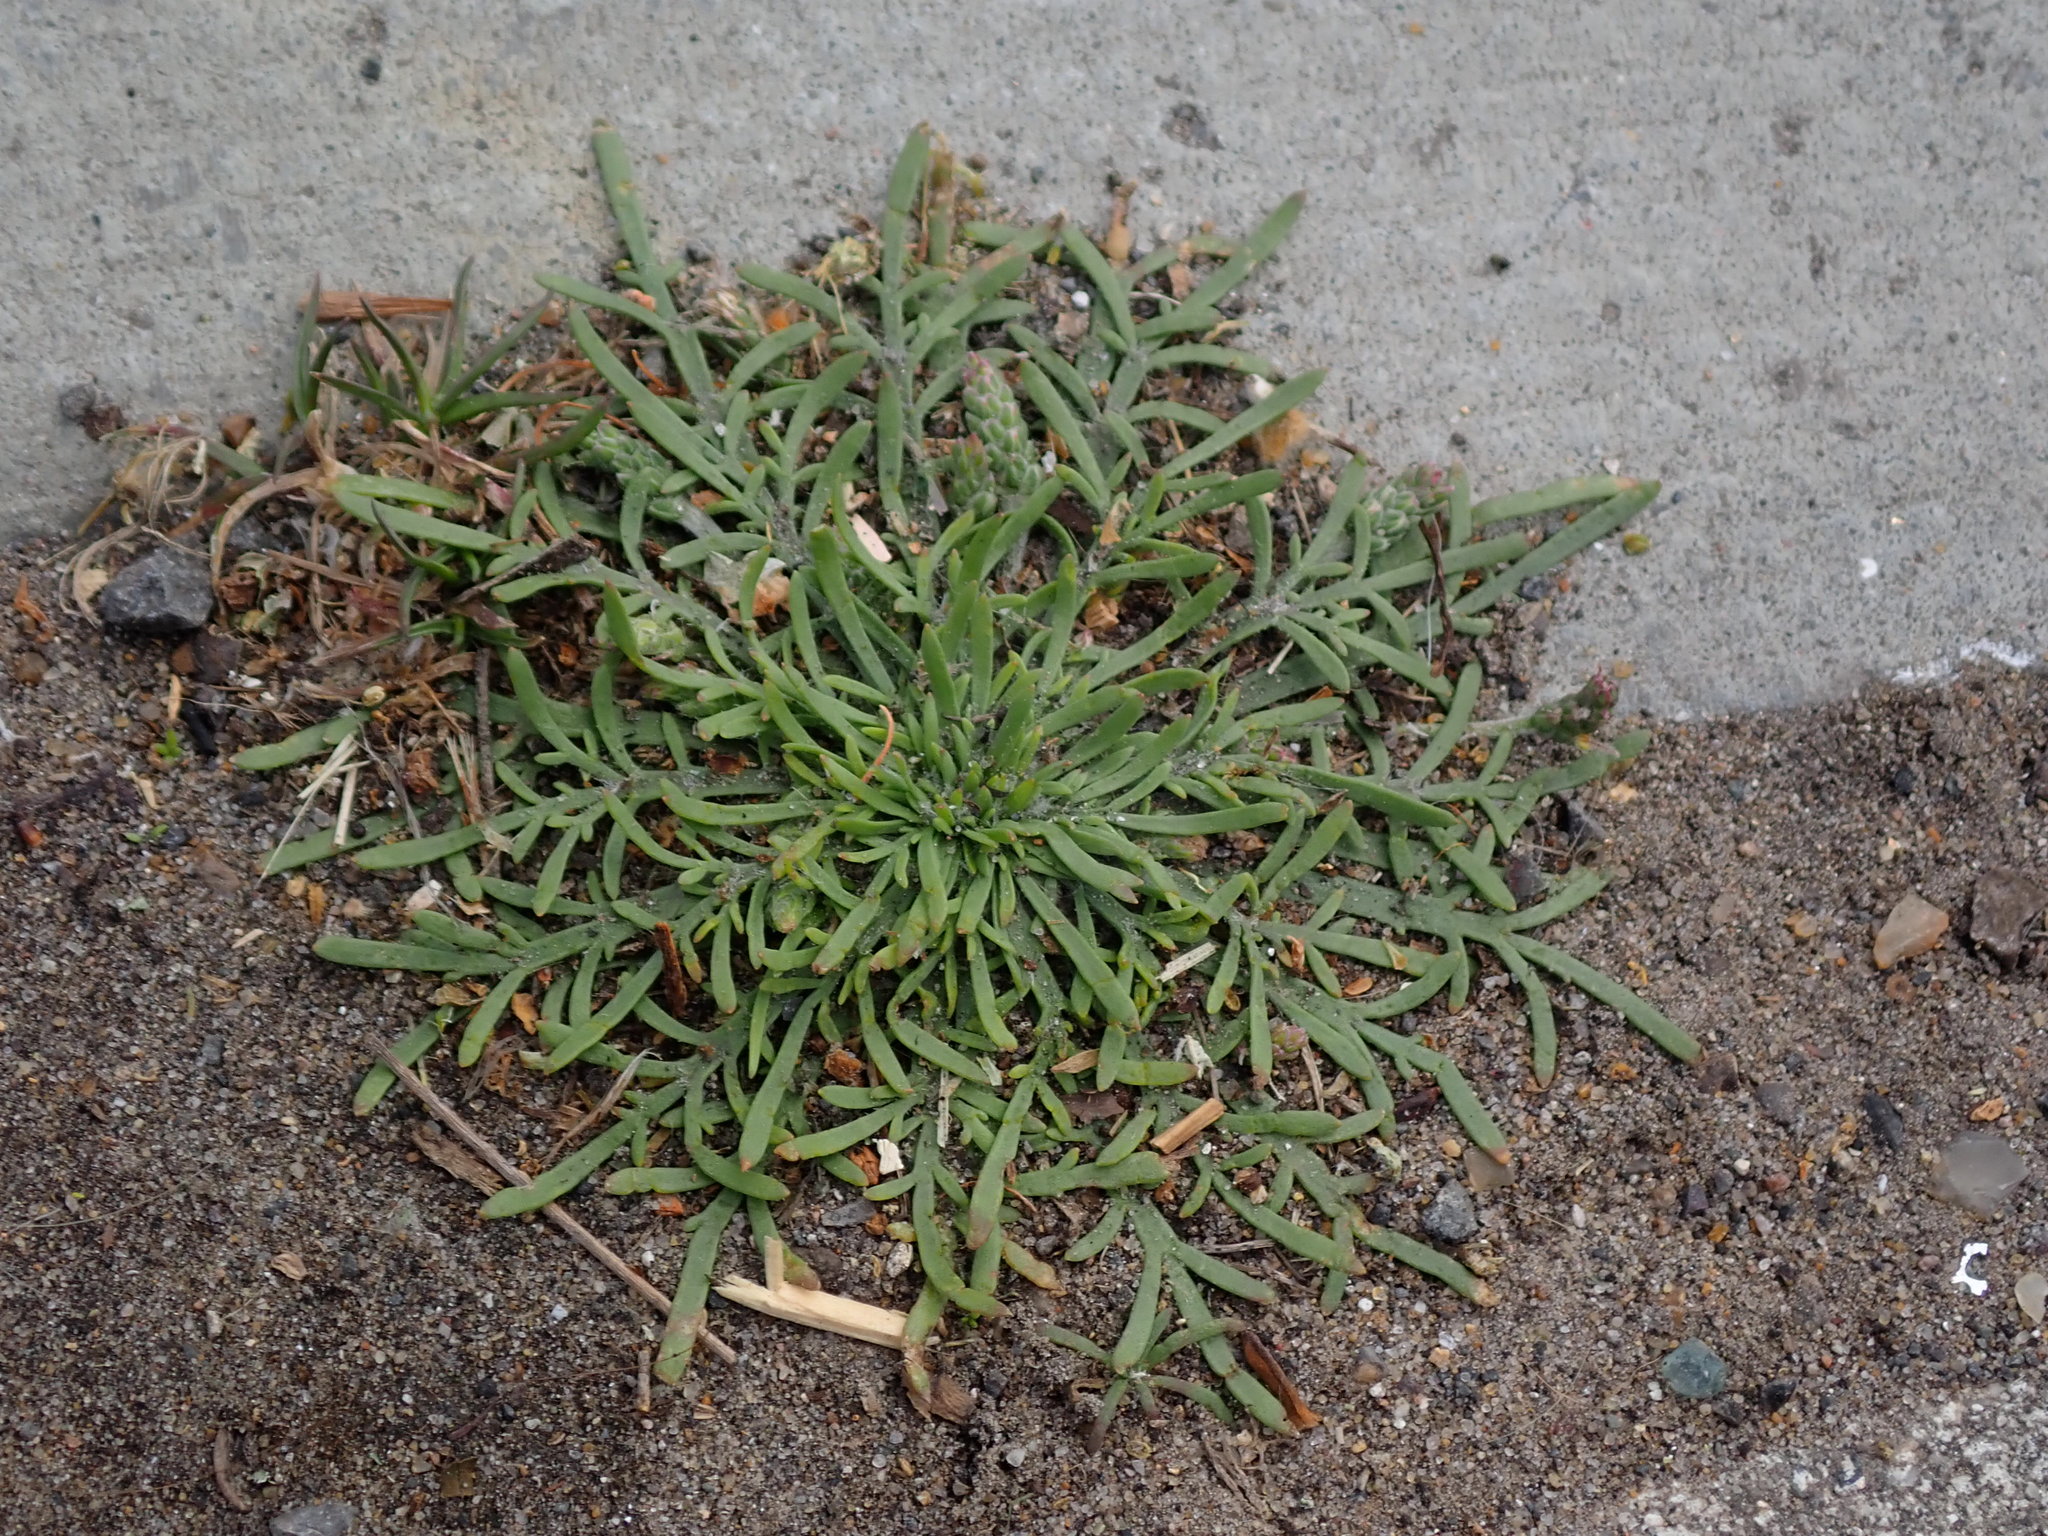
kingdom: Plantae
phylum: Tracheophyta
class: Magnoliopsida
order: Lamiales
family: Plantaginaceae
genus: Plantago
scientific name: Plantago coronopus
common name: Buck's-horn plantain
